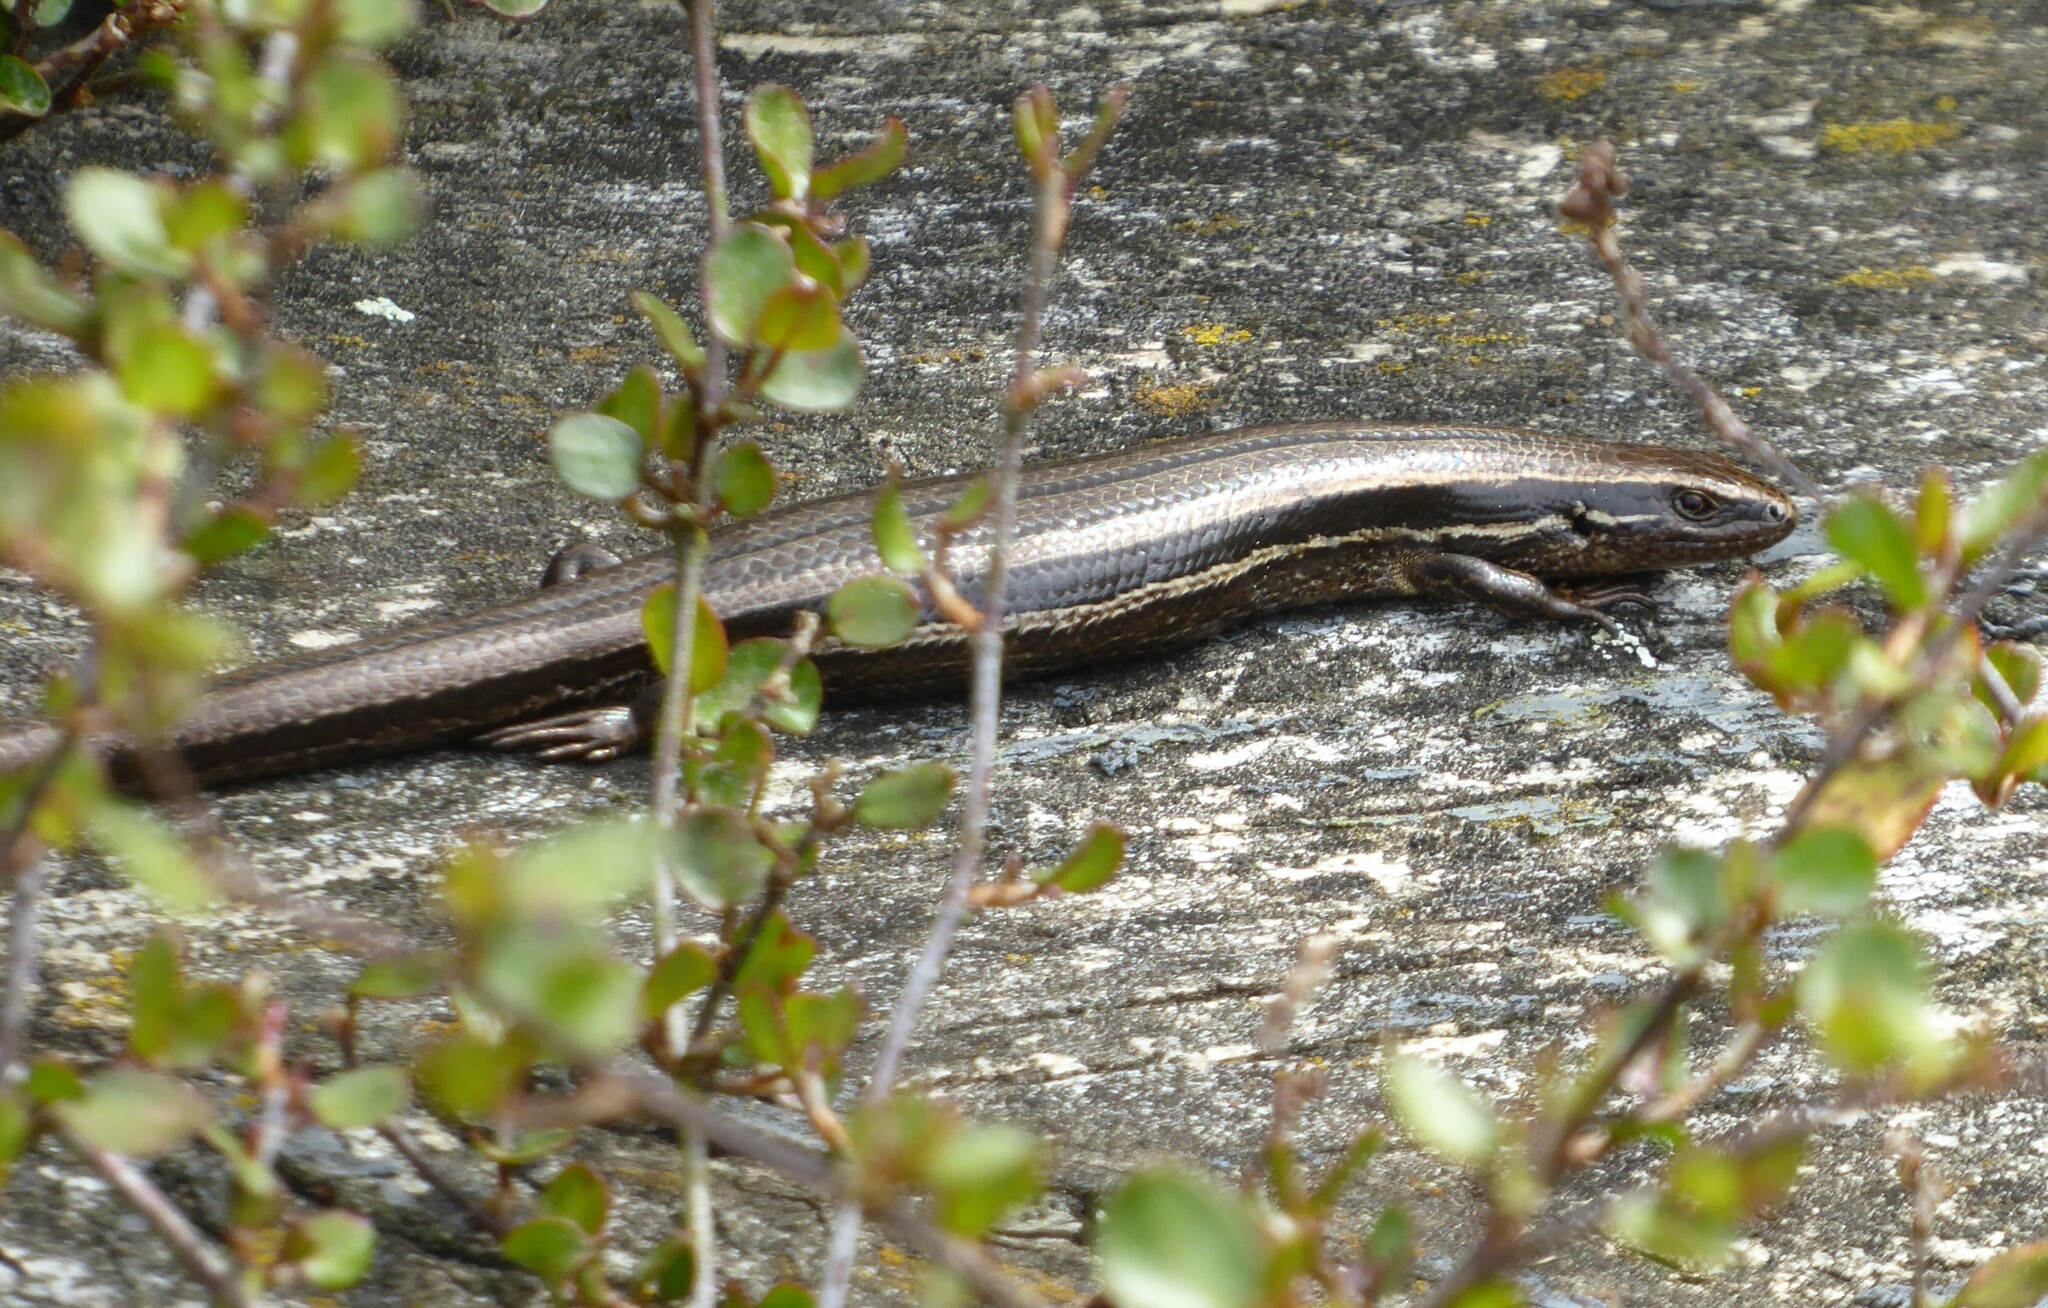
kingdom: Animalia
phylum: Chordata
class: Squamata
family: Scincidae
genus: Oligosoma
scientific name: Oligosoma polychroma
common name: Common new zealand skink
